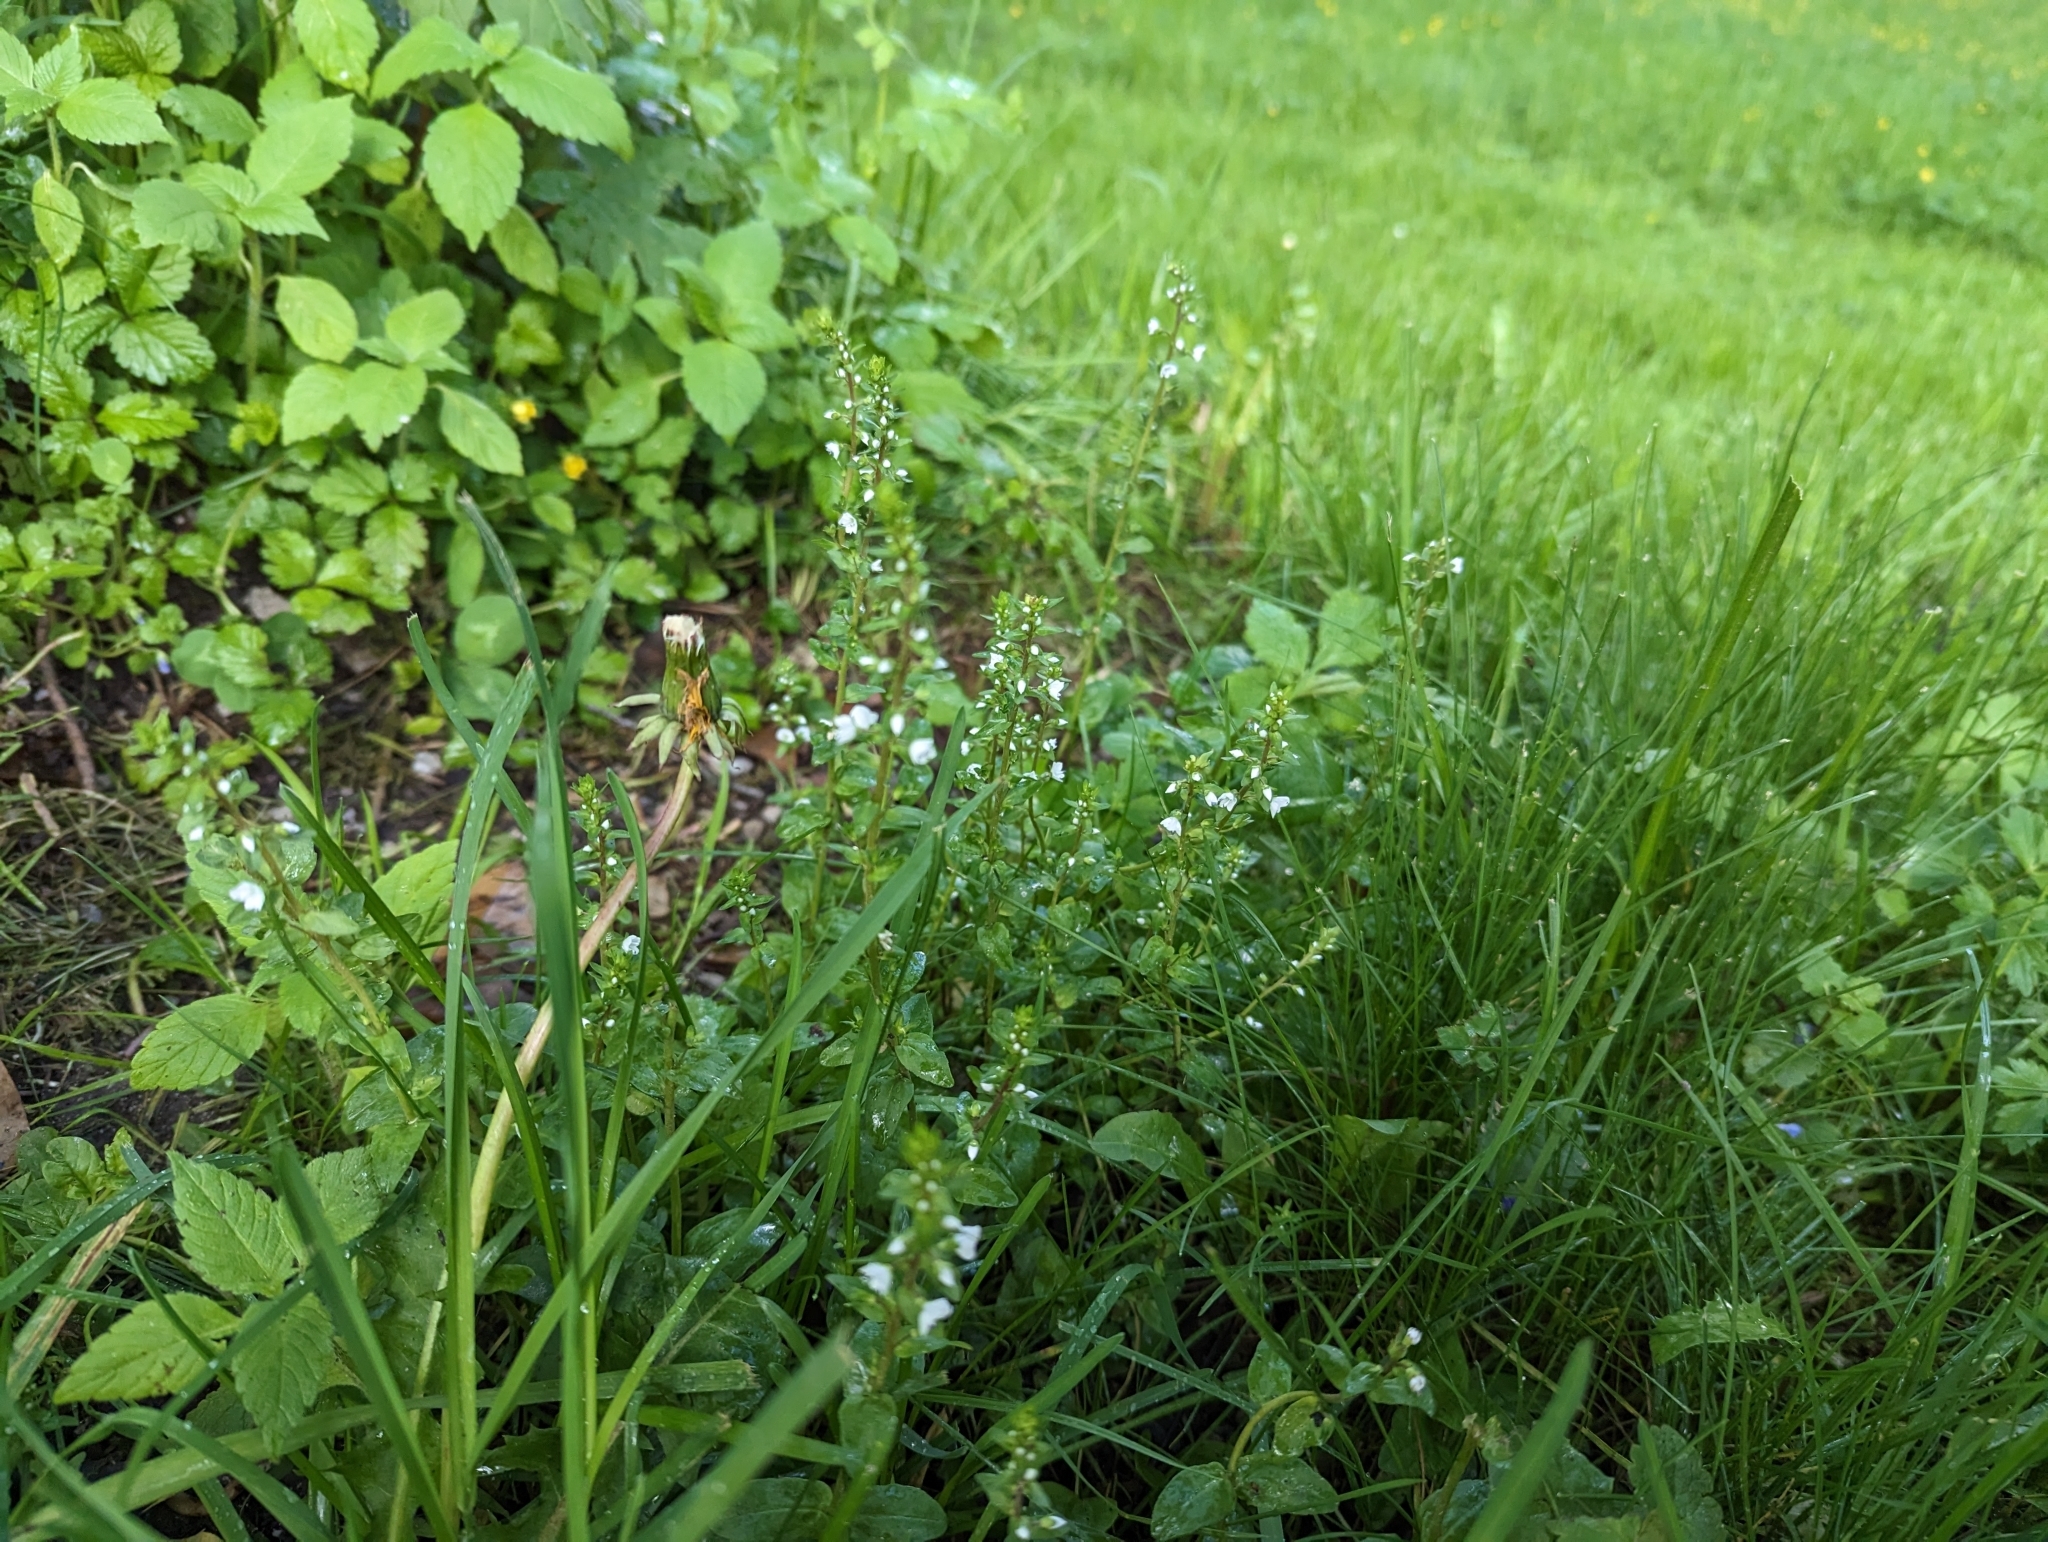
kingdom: Plantae
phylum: Tracheophyta
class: Magnoliopsida
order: Lamiales
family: Plantaginaceae
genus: Veronica
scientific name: Veronica serpyllifolia
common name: Thyme-leaved speedwell
